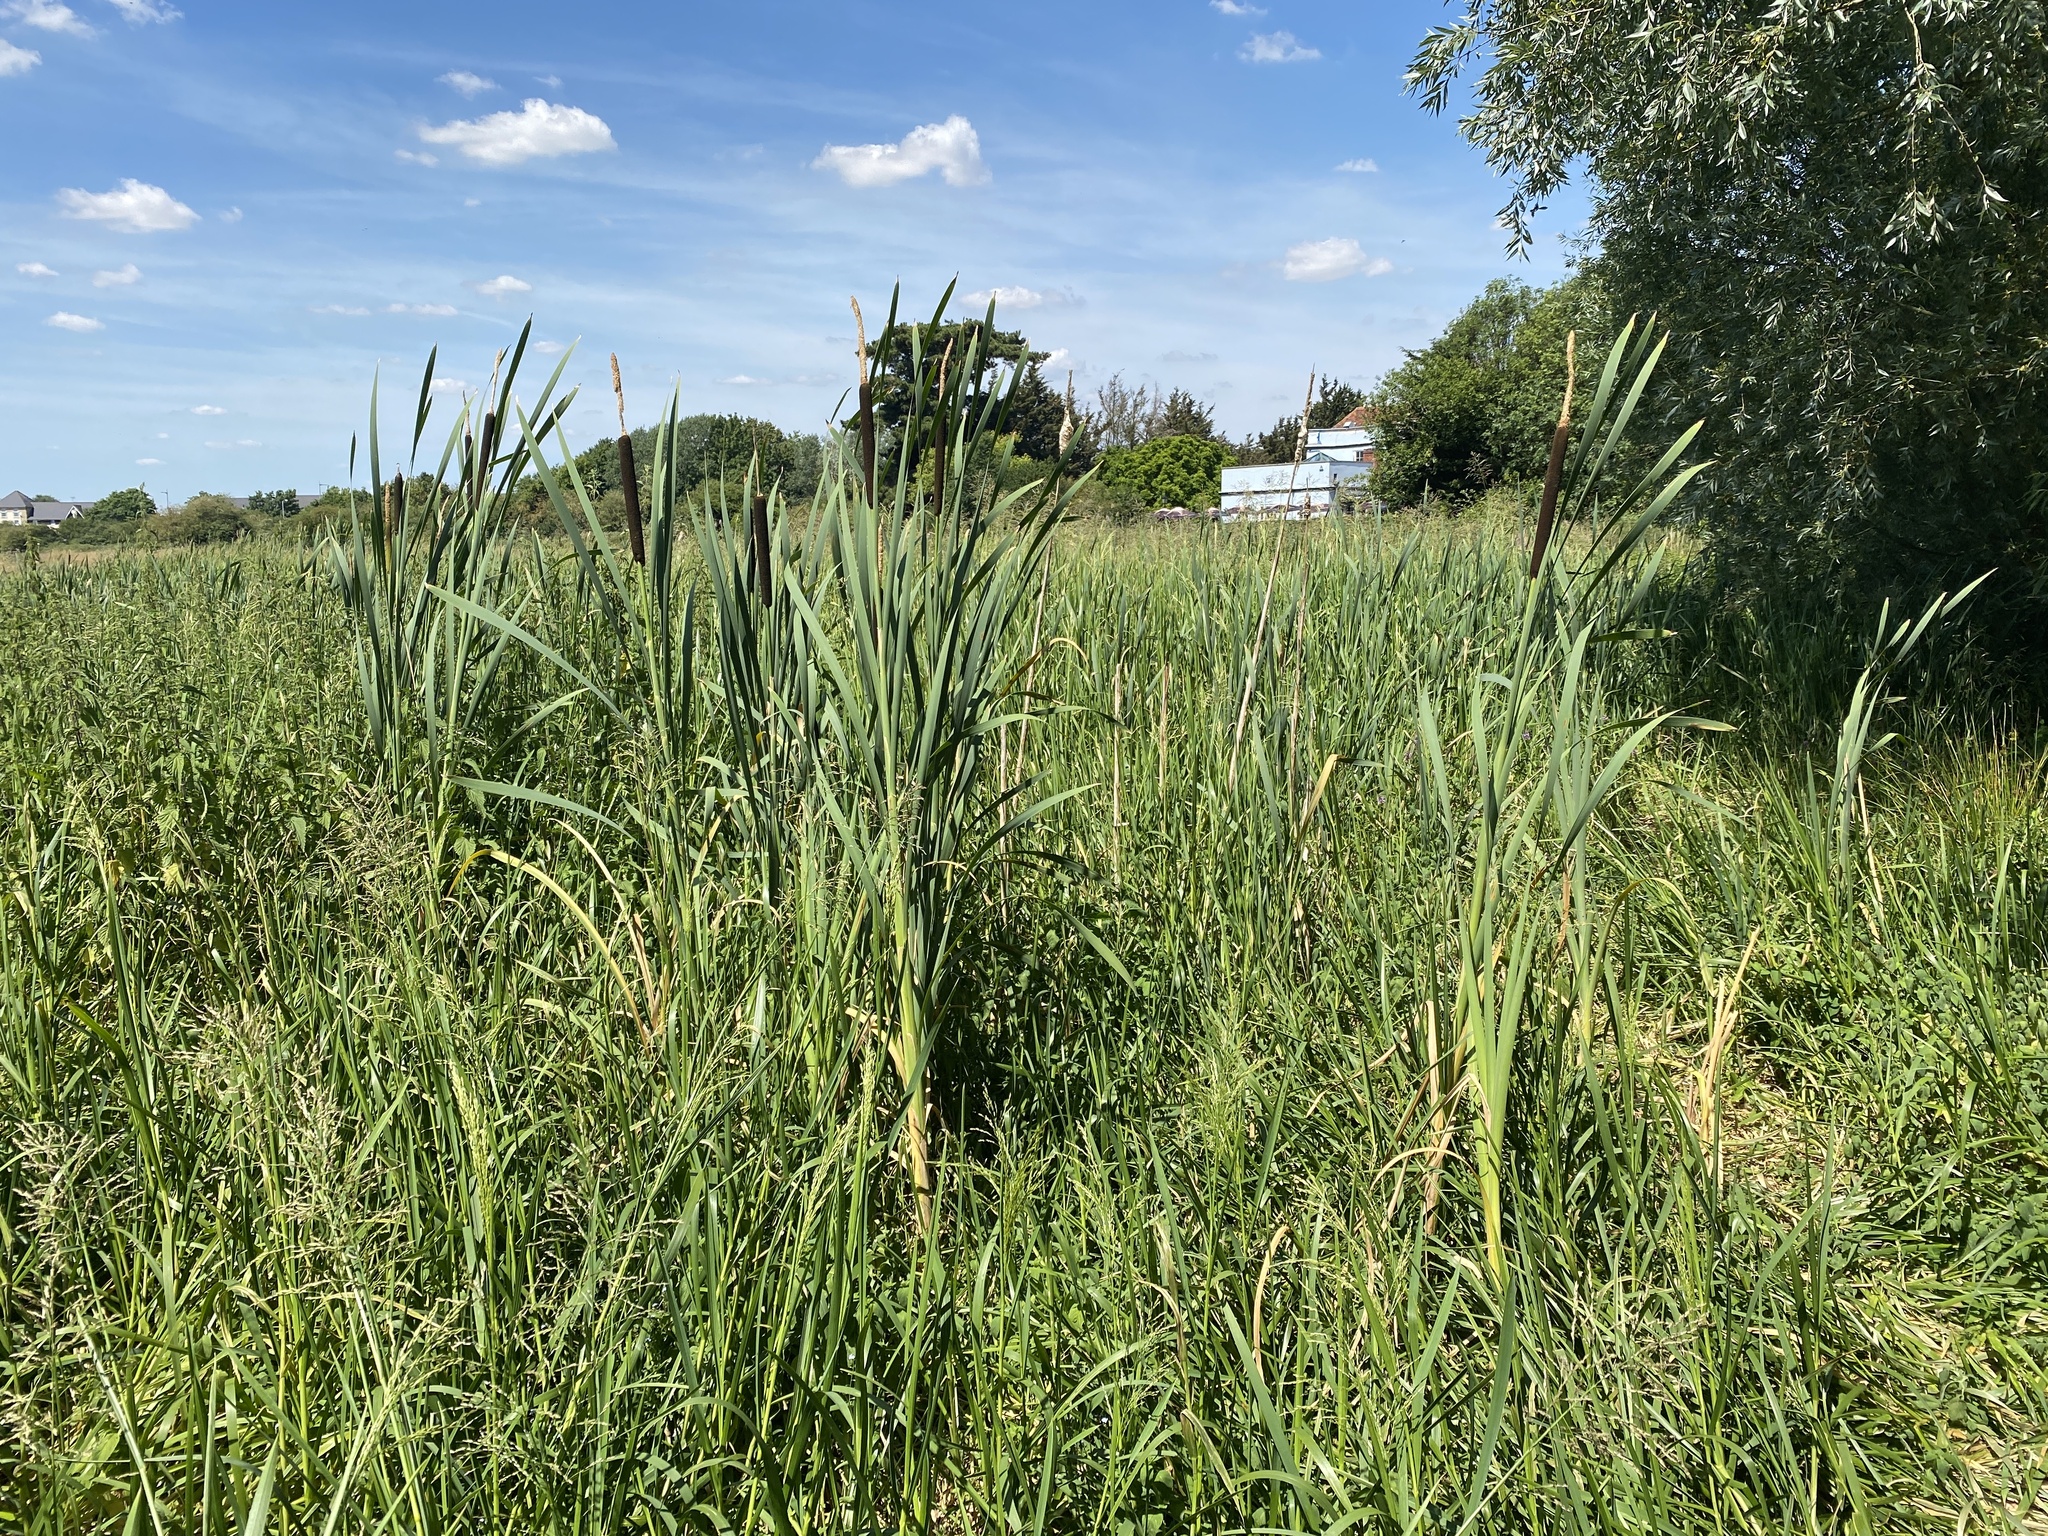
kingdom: Plantae
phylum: Tracheophyta
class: Liliopsida
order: Poales
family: Typhaceae
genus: Typha
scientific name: Typha latifolia
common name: Broadleaf cattail
